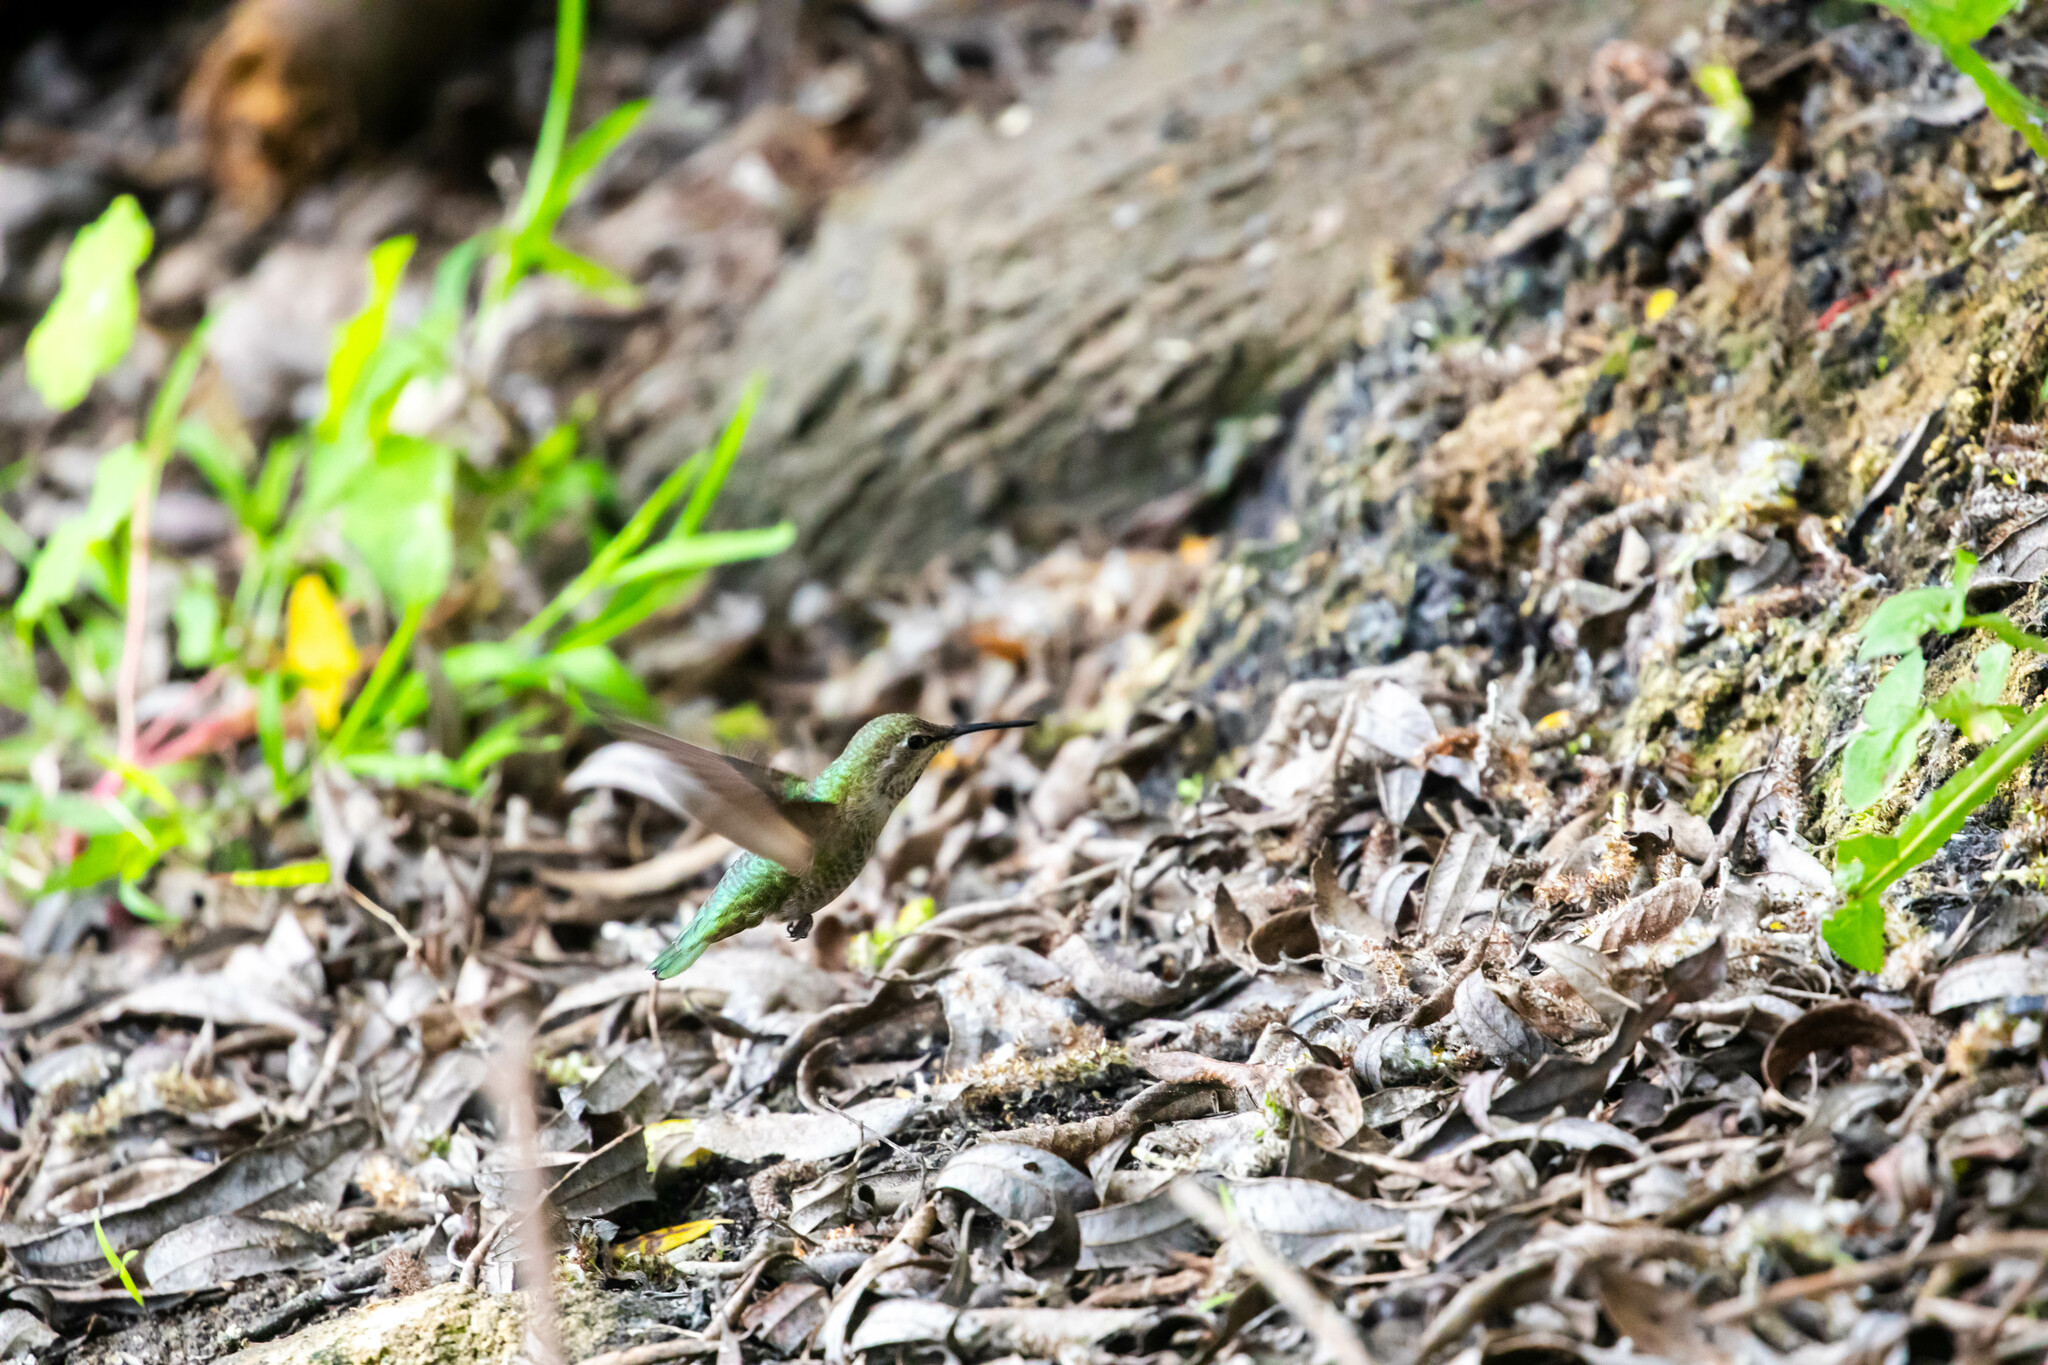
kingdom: Animalia
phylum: Chordata
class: Aves
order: Apodiformes
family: Trochilidae
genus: Calypte
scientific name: Calypte anna
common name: Anna's hummingbird
